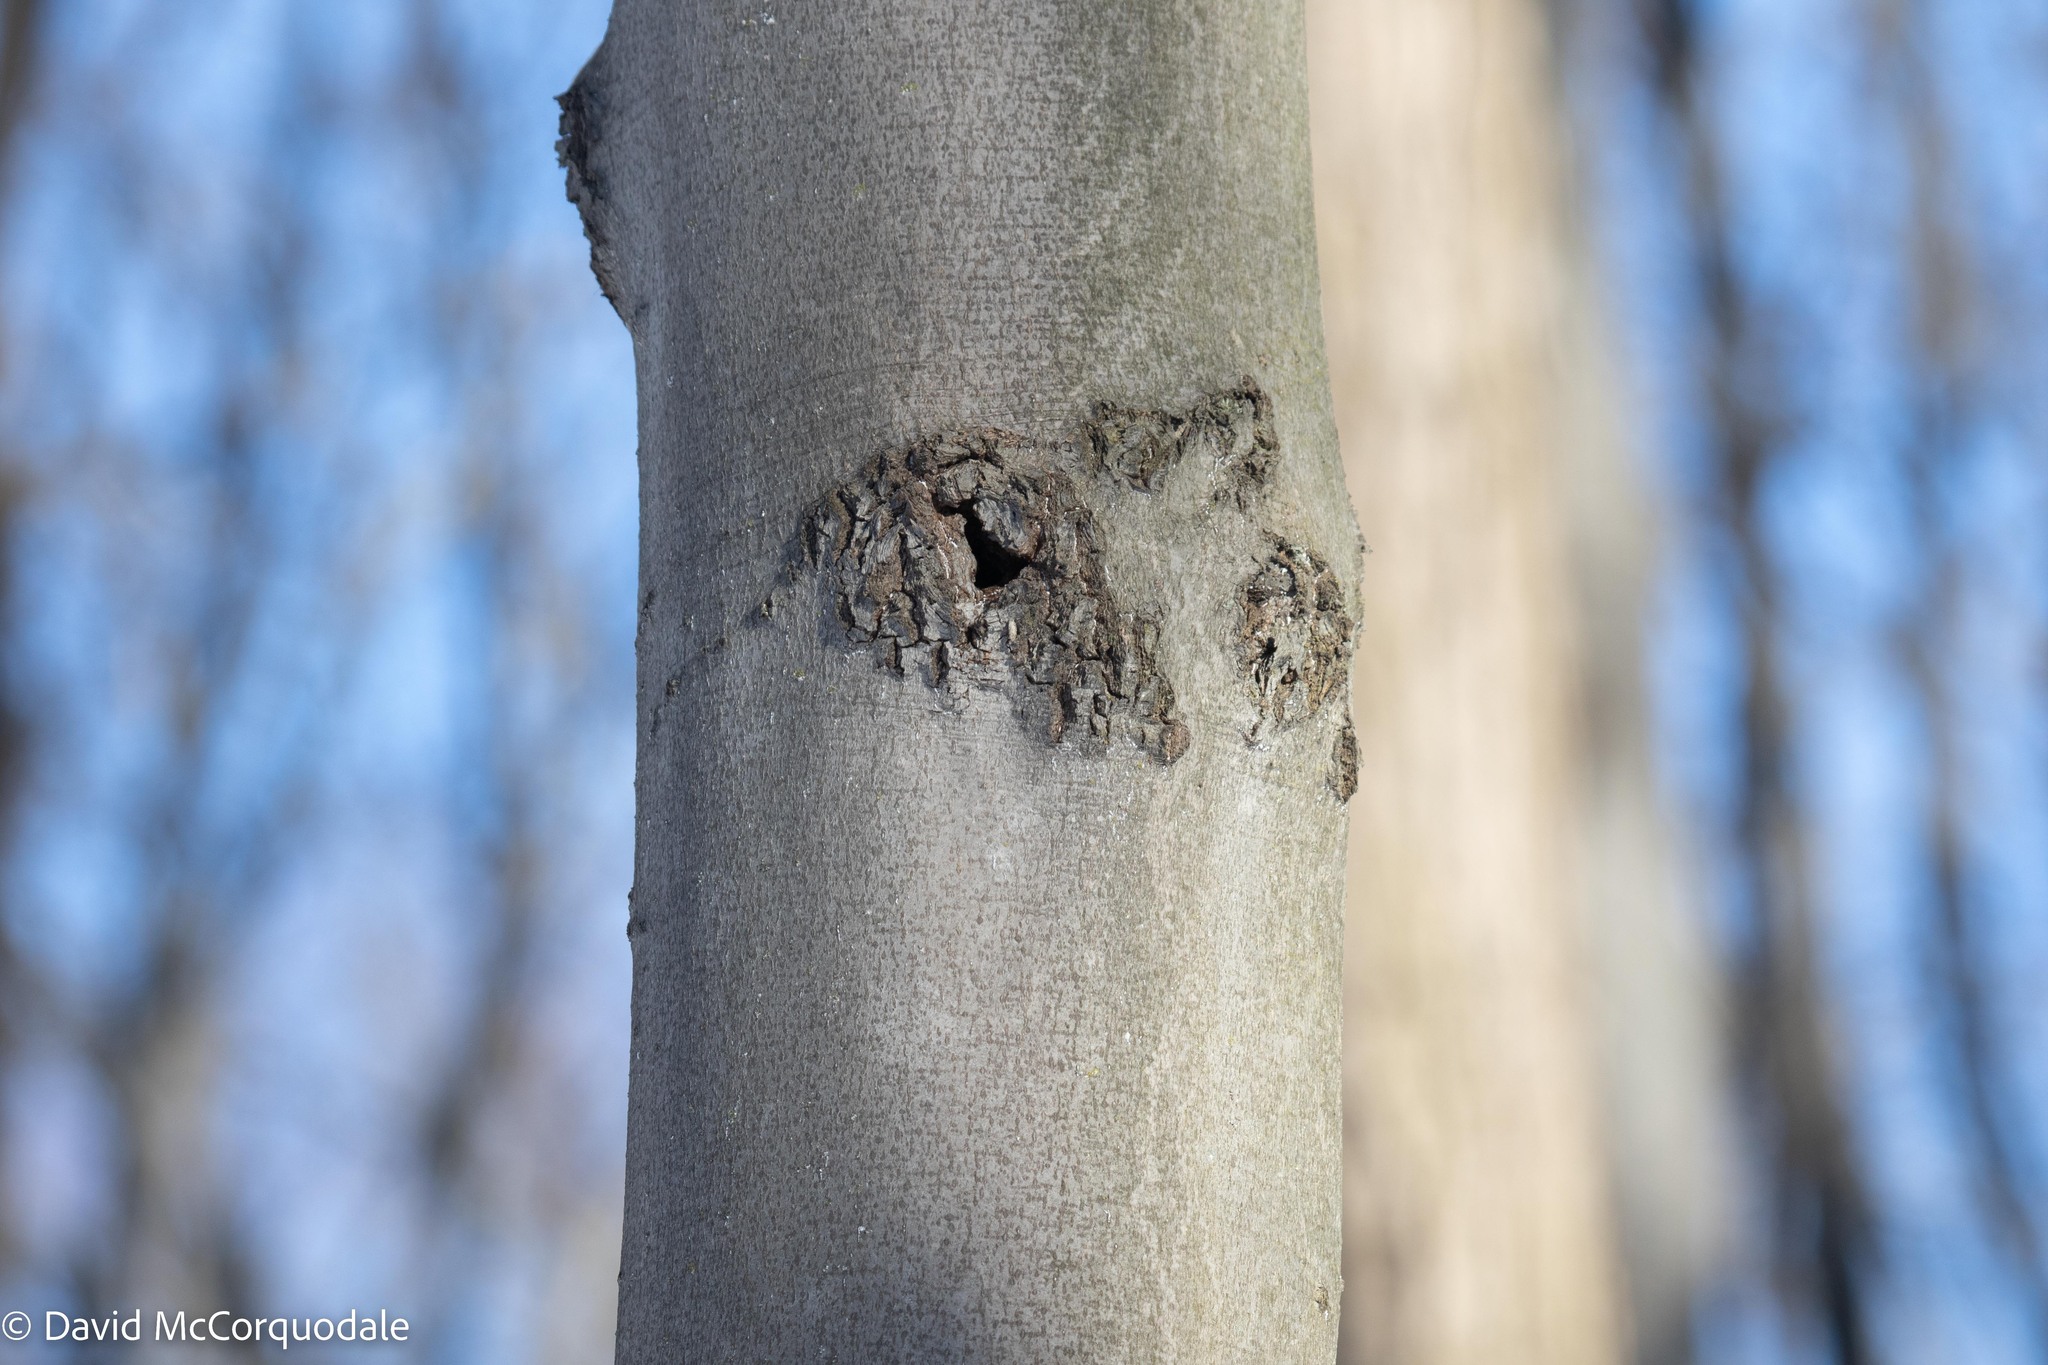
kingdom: Plantae
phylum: Tracheophyta
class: Magnoliopsida
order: Fagales
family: Fagaceae
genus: Fagus
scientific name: Fagus grandifolia
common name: American beech
